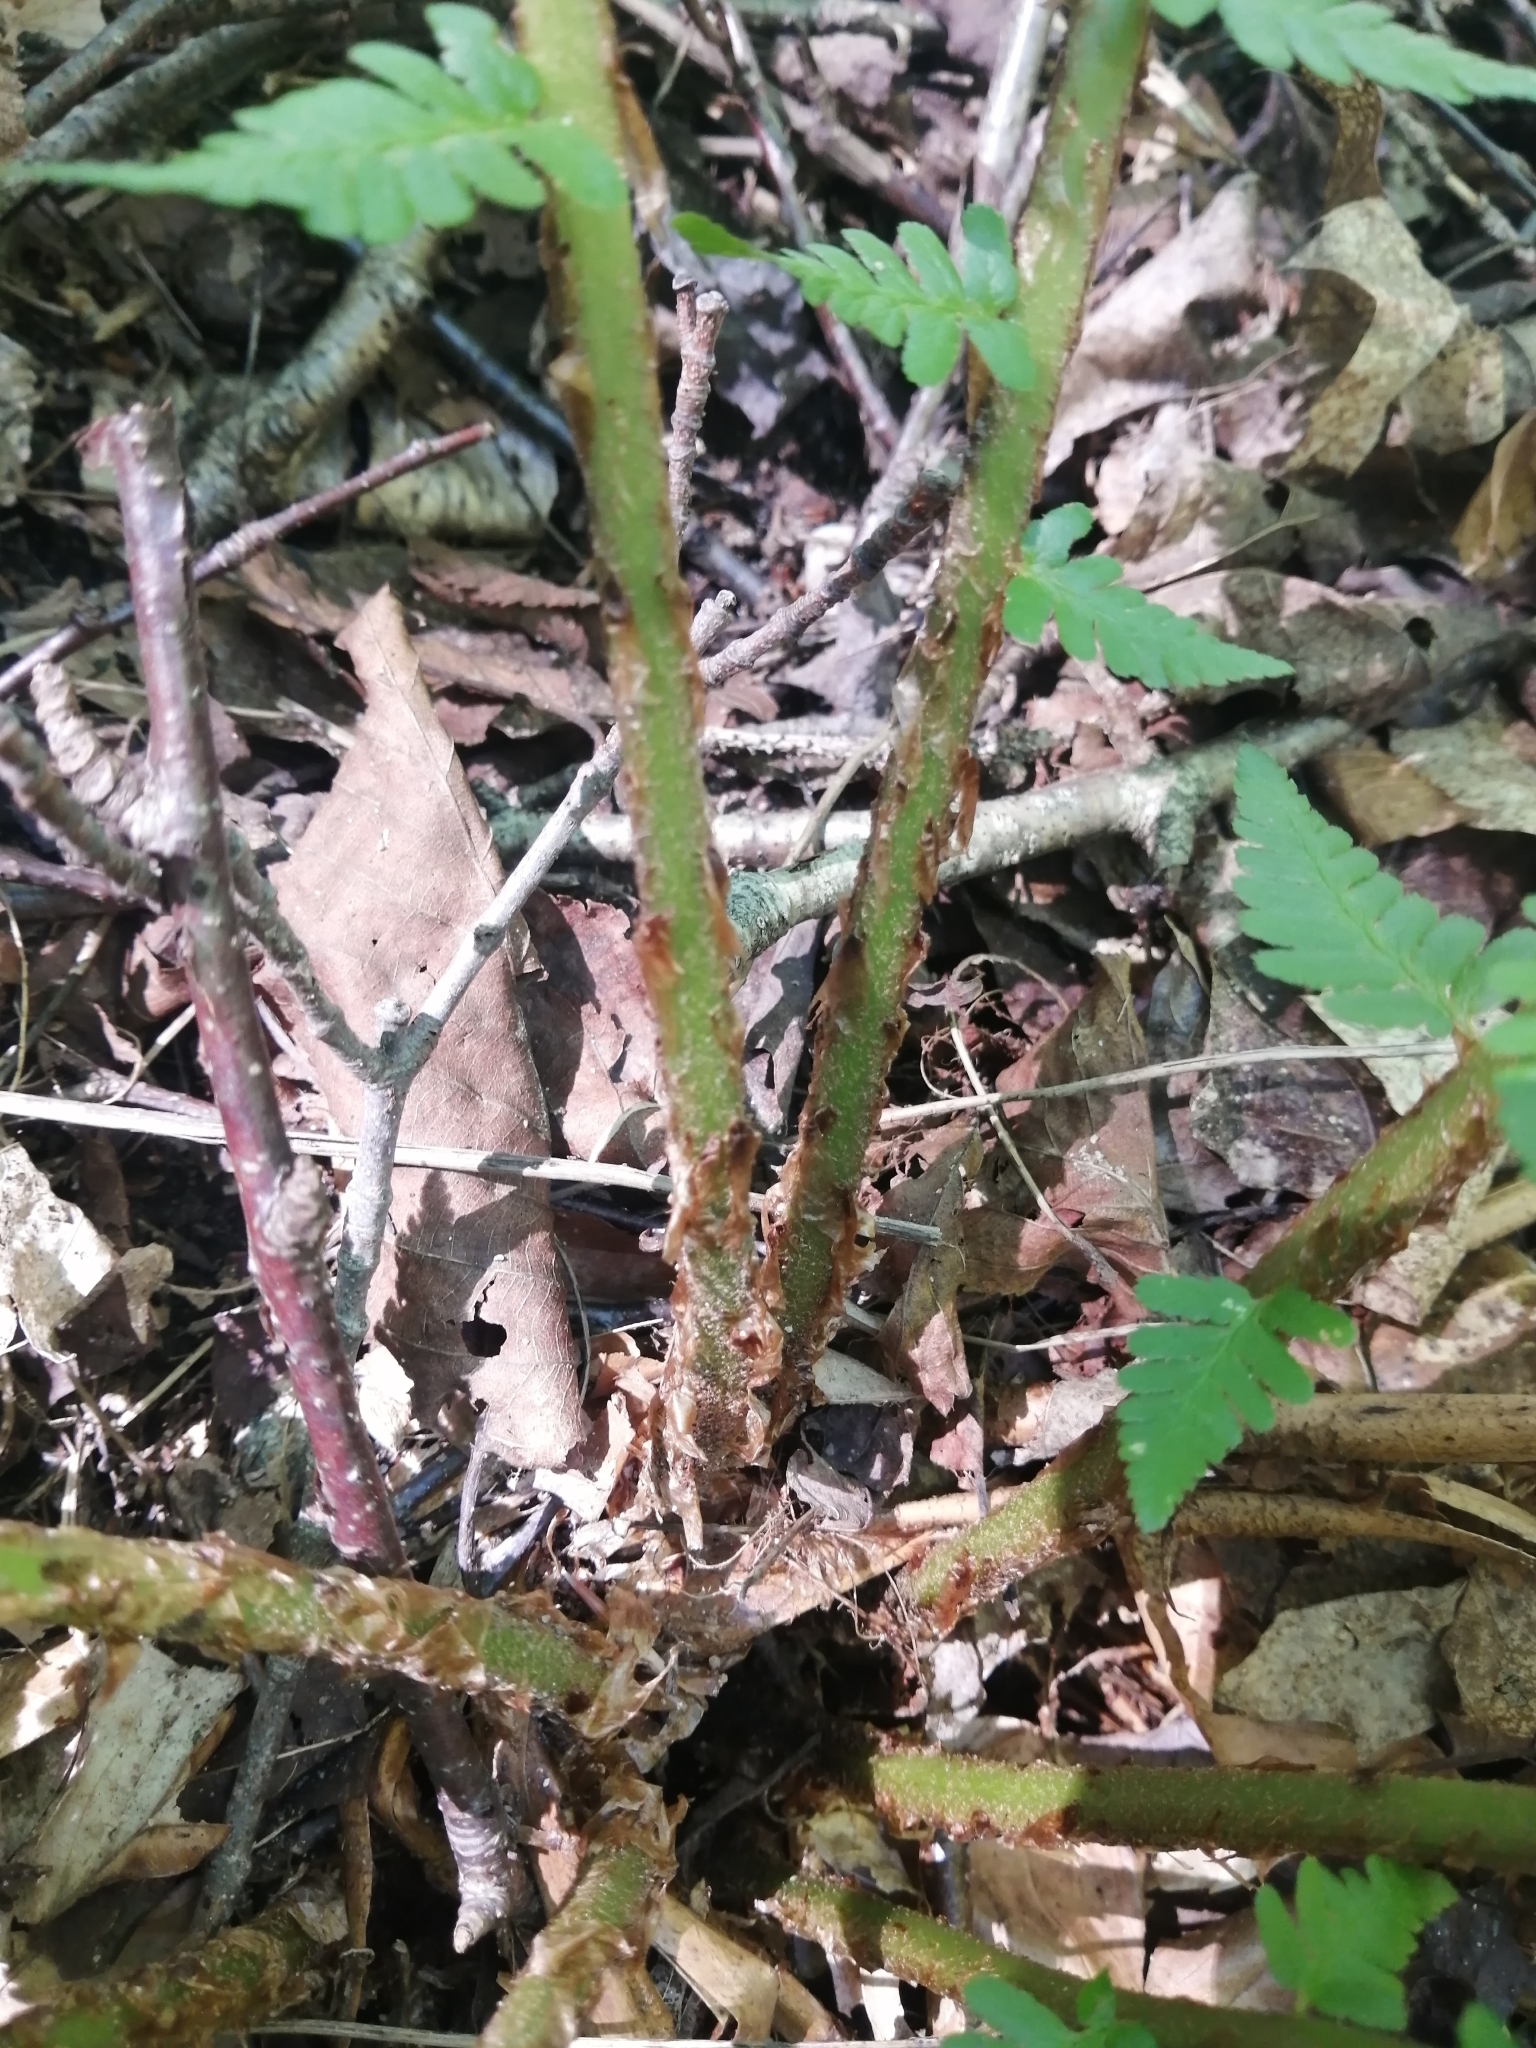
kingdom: Plantae
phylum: Tracheophyta
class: Polypodiopsida
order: Polypodiales
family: Dryopteridaceae
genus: Dryopteris
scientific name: Dryopteris filix-mas
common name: Male fern
